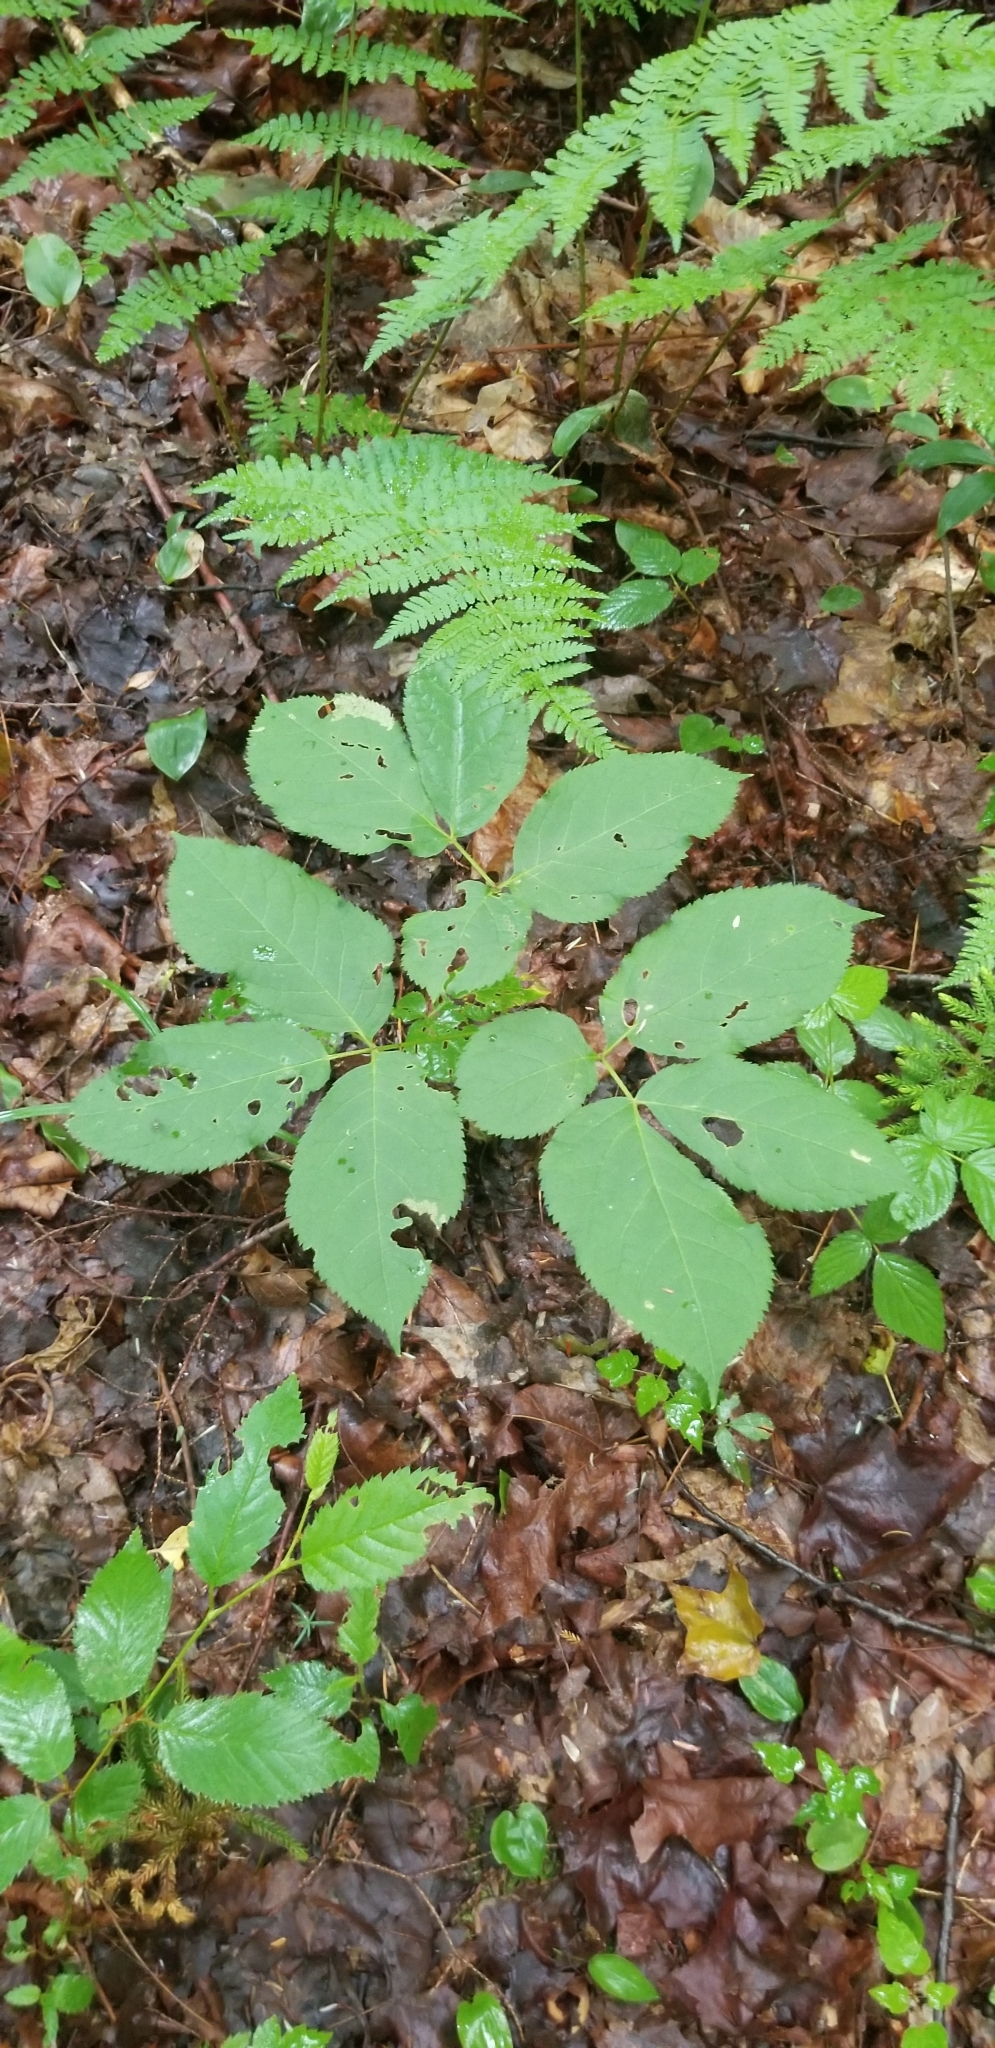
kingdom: Plantae
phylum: Tracheophyta
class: Magnoliopsida
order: Apiales
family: Araliaceae
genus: Aralia
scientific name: Aralia nudicaulis
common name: Wild sarsaparilla
